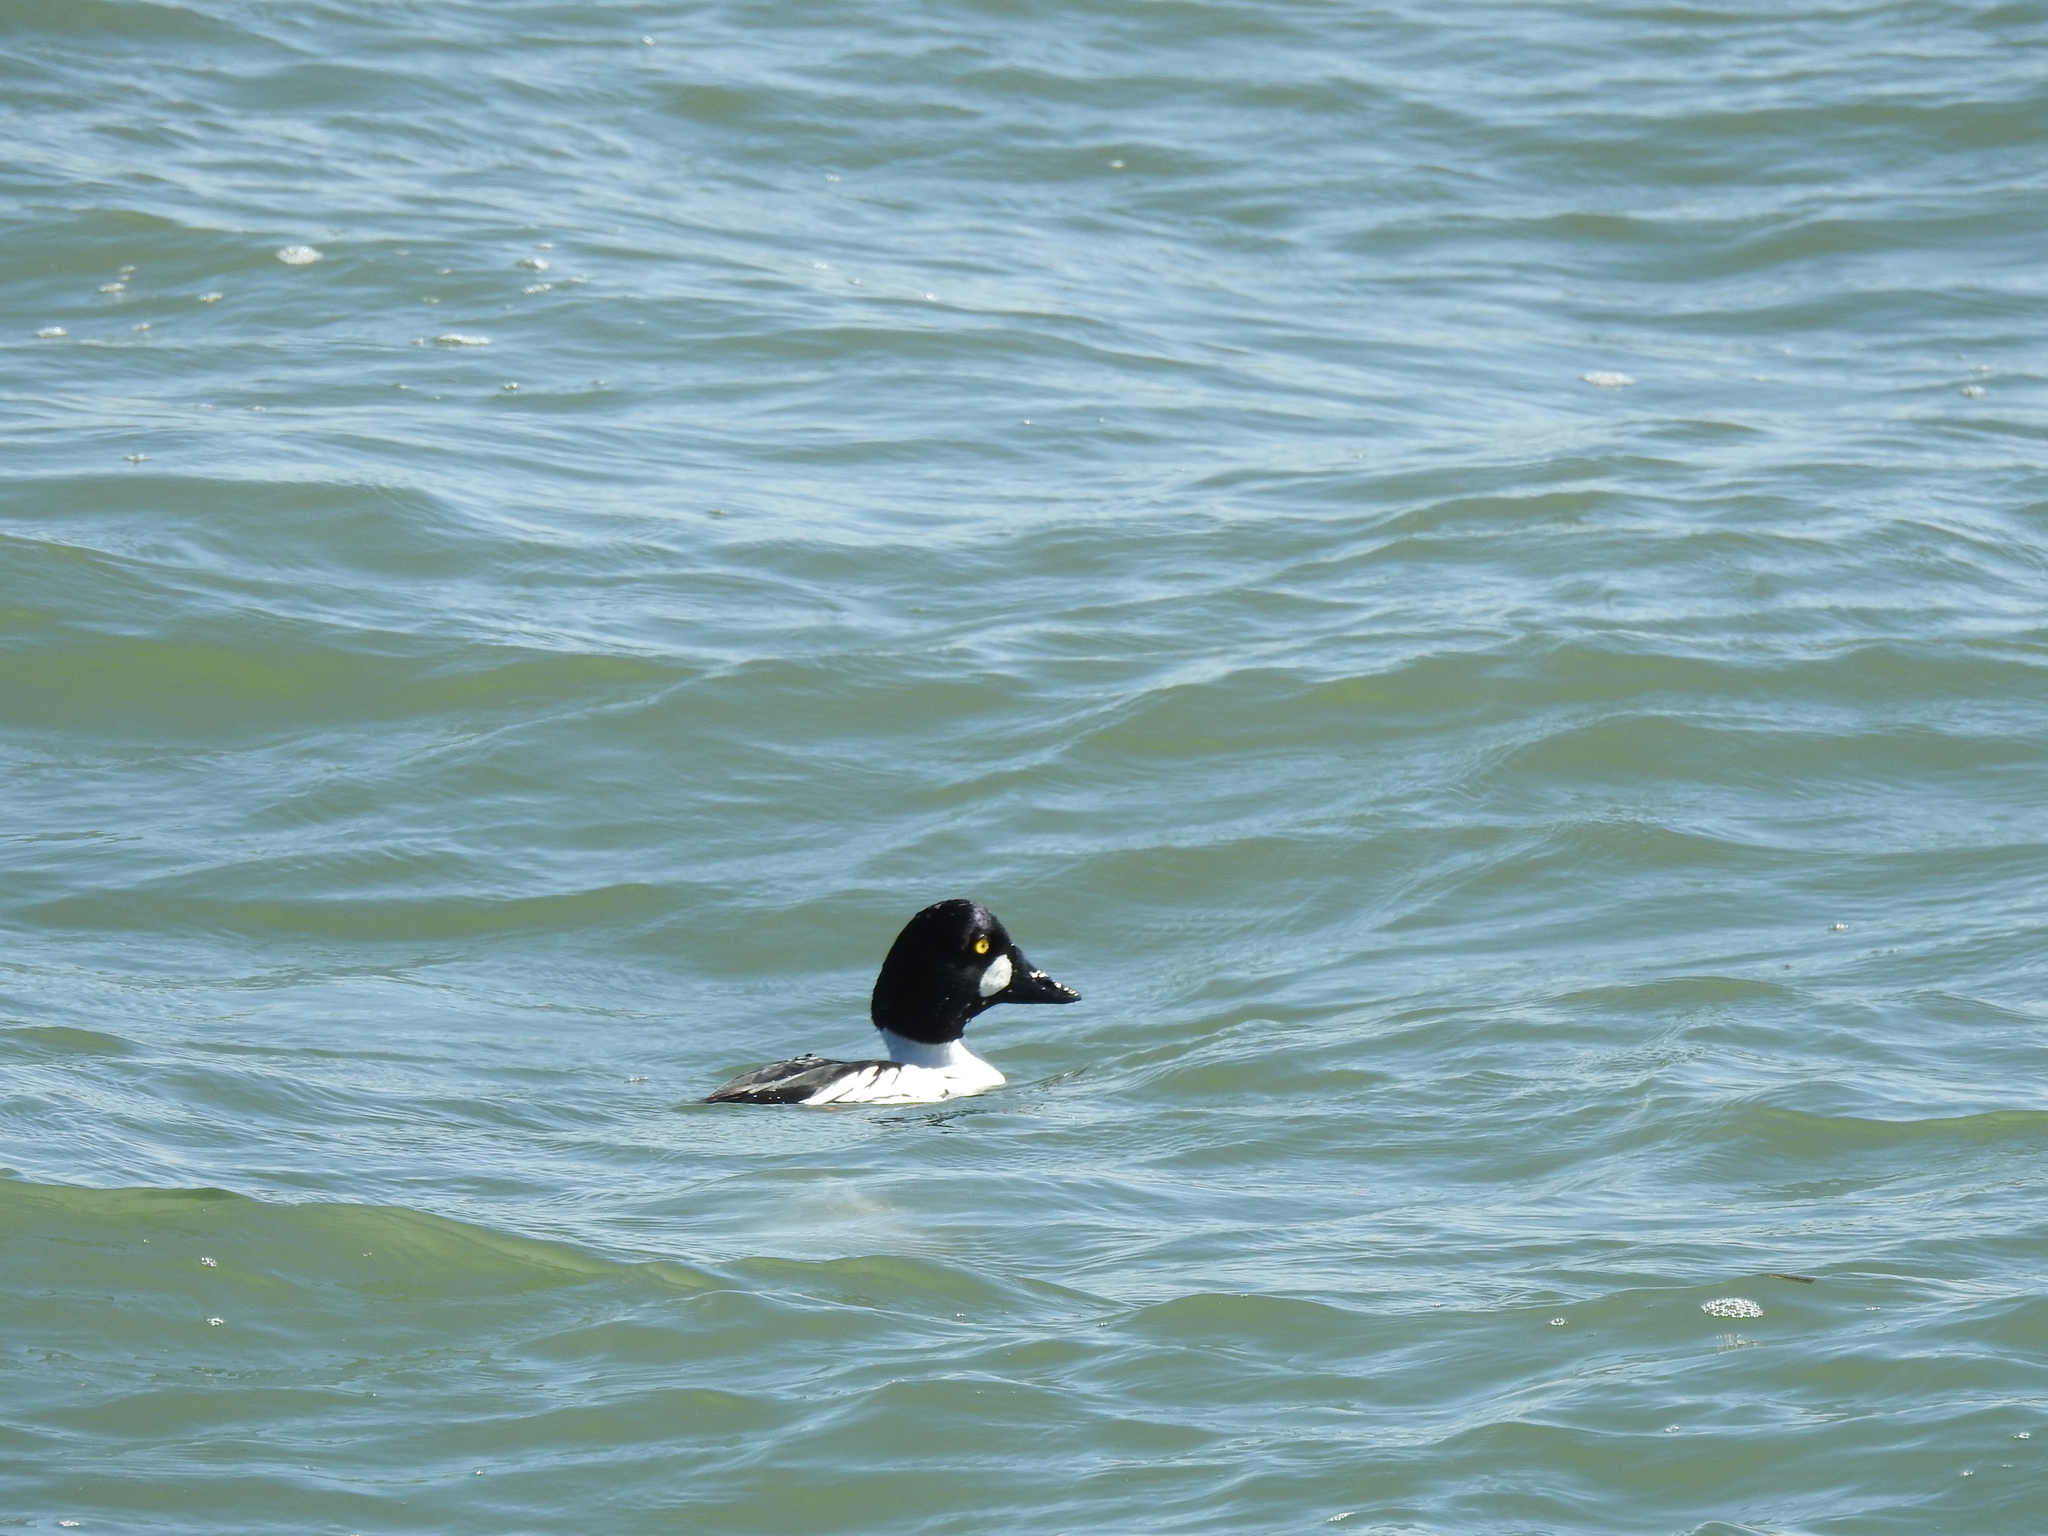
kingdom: Animalia
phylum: Chordata
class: Aves
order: Anseriformes
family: Anatidae
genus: Bucephala
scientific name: Bucephala clangula
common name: Common goldeneye
